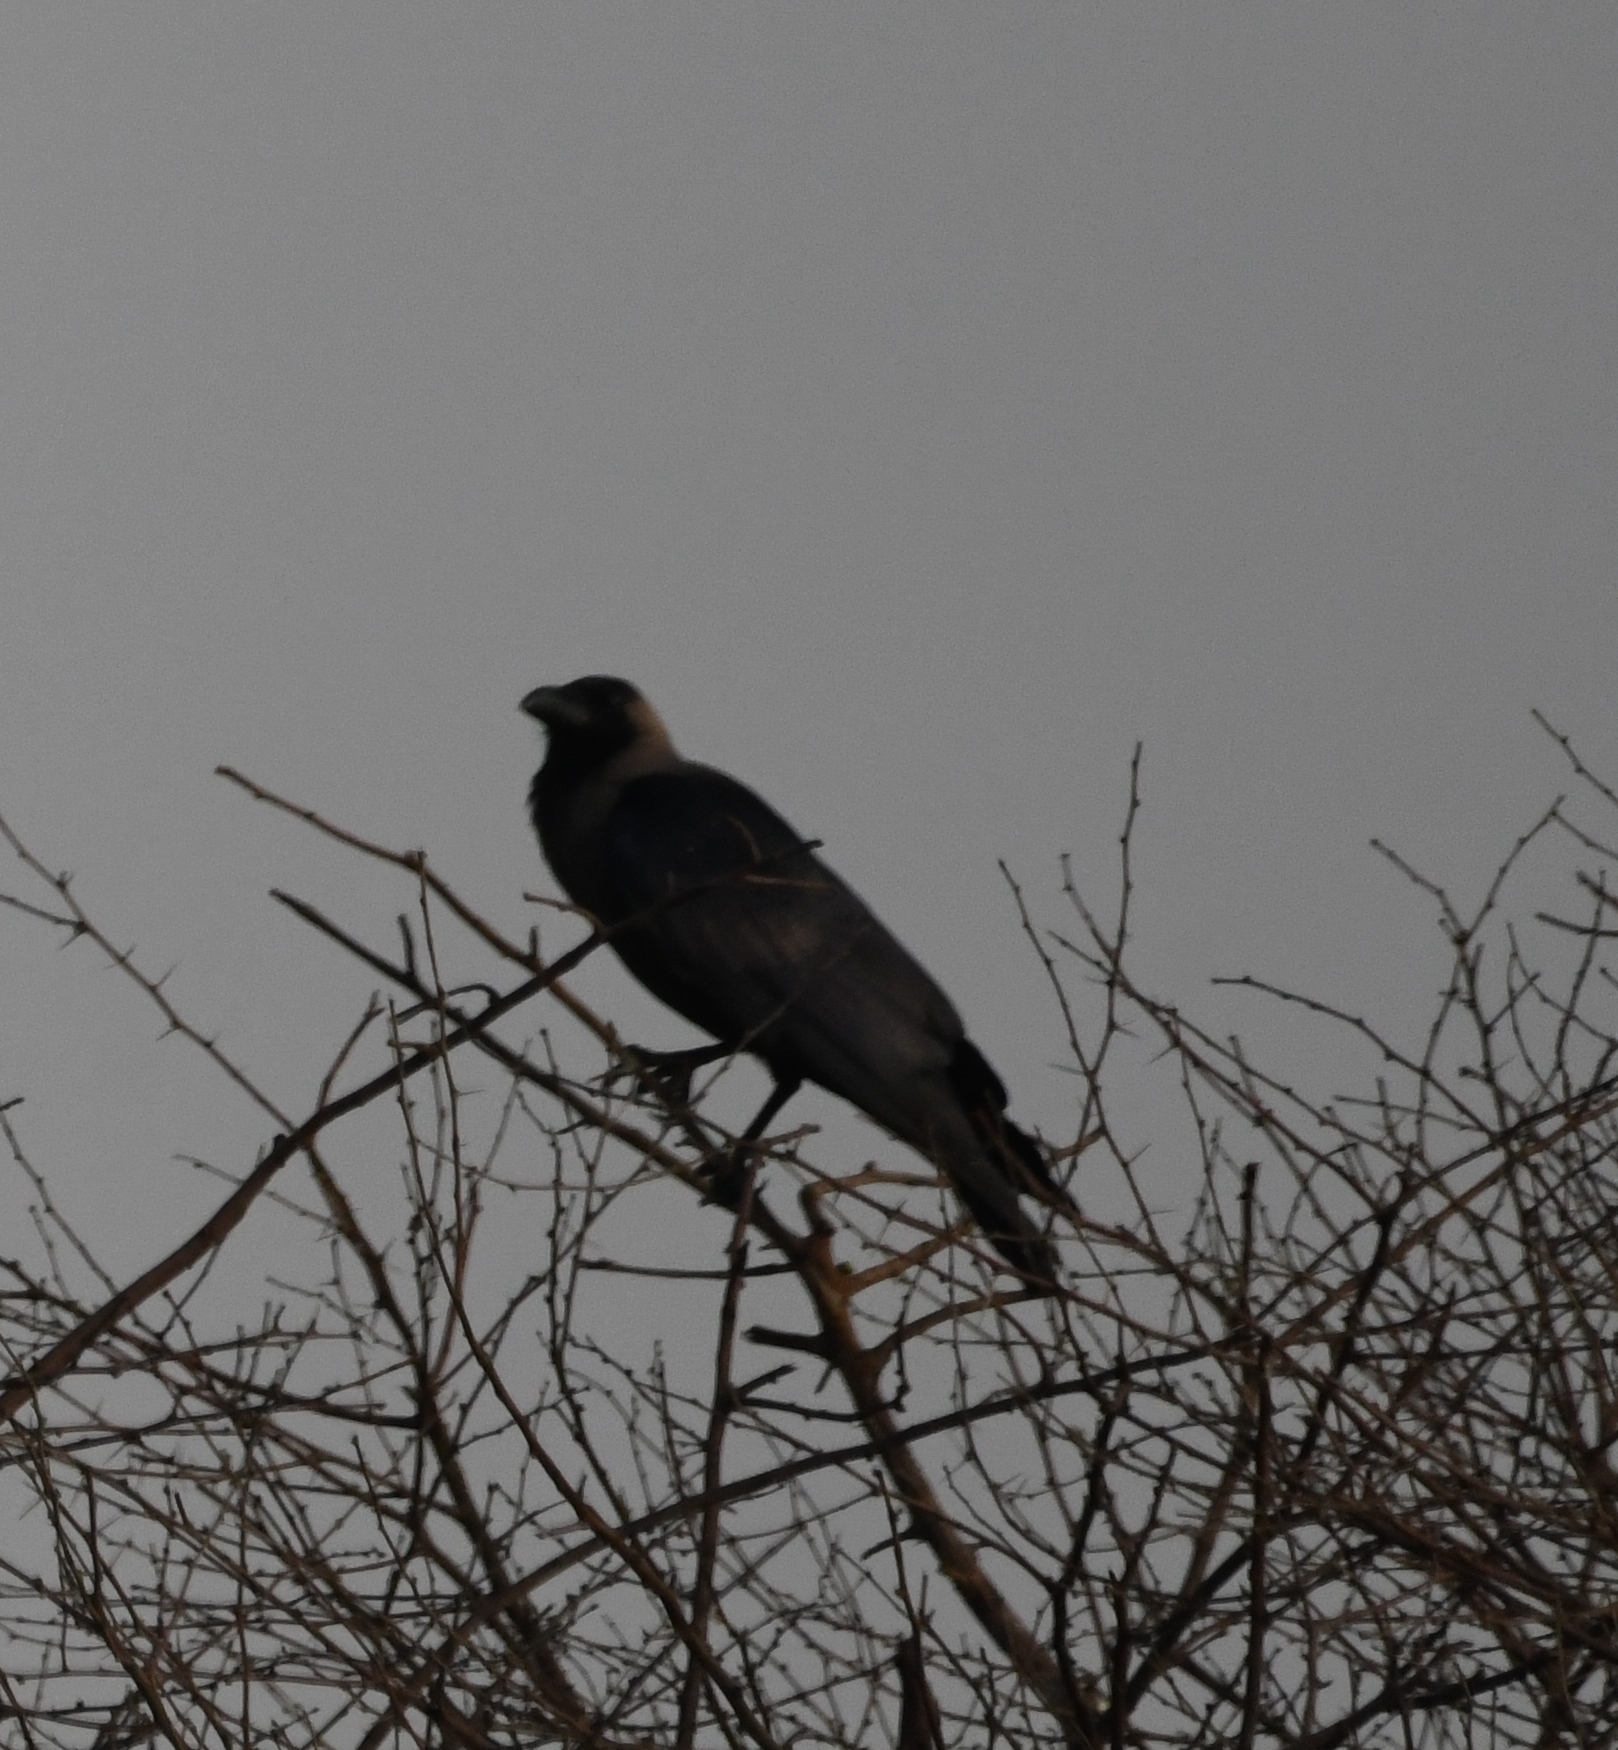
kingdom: Animalia
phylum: Chordata
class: Aves
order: Passeriformes
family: Corvidae
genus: Corvus
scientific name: Corvus splendens
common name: House crow
